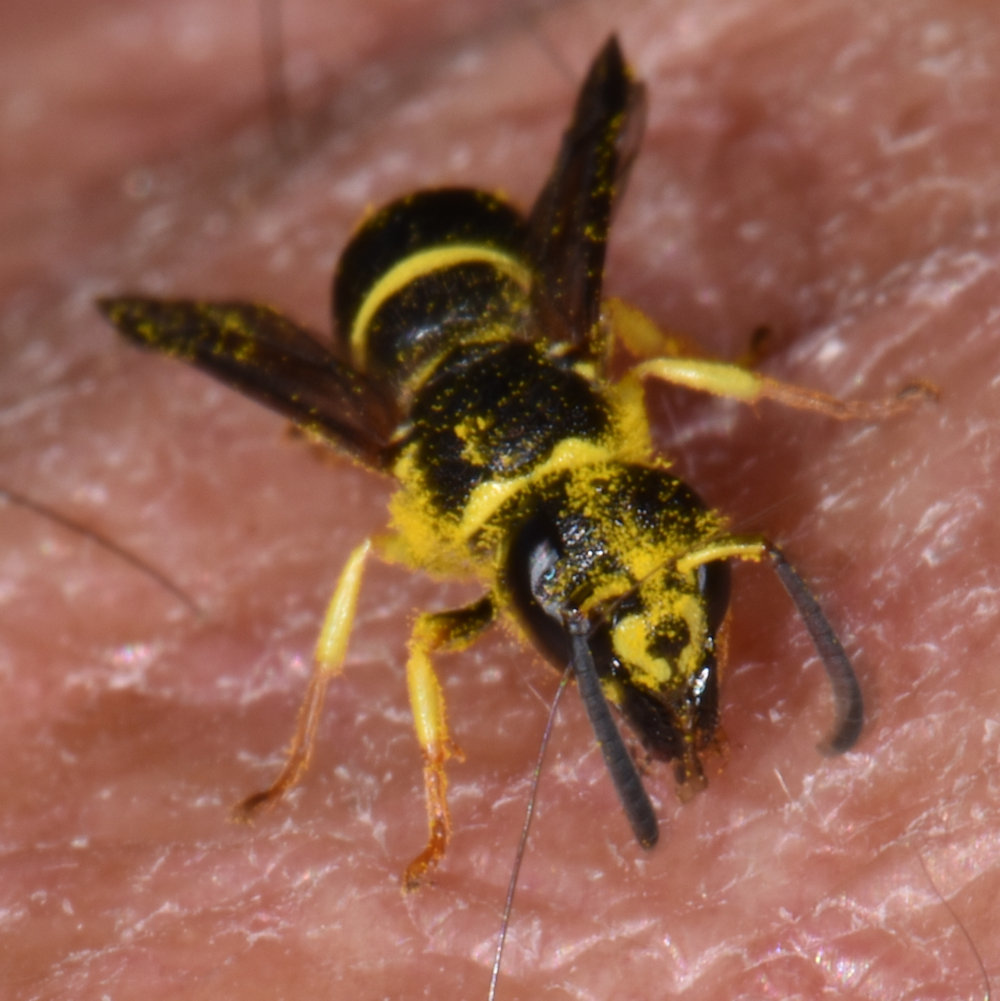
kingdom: Animalia
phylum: Arthropoda
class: Insecta
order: Hymenoptera
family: Vespidae
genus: Ancistrocerus
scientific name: Ancistrocerus adiabatus
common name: Bramble mason wasp
